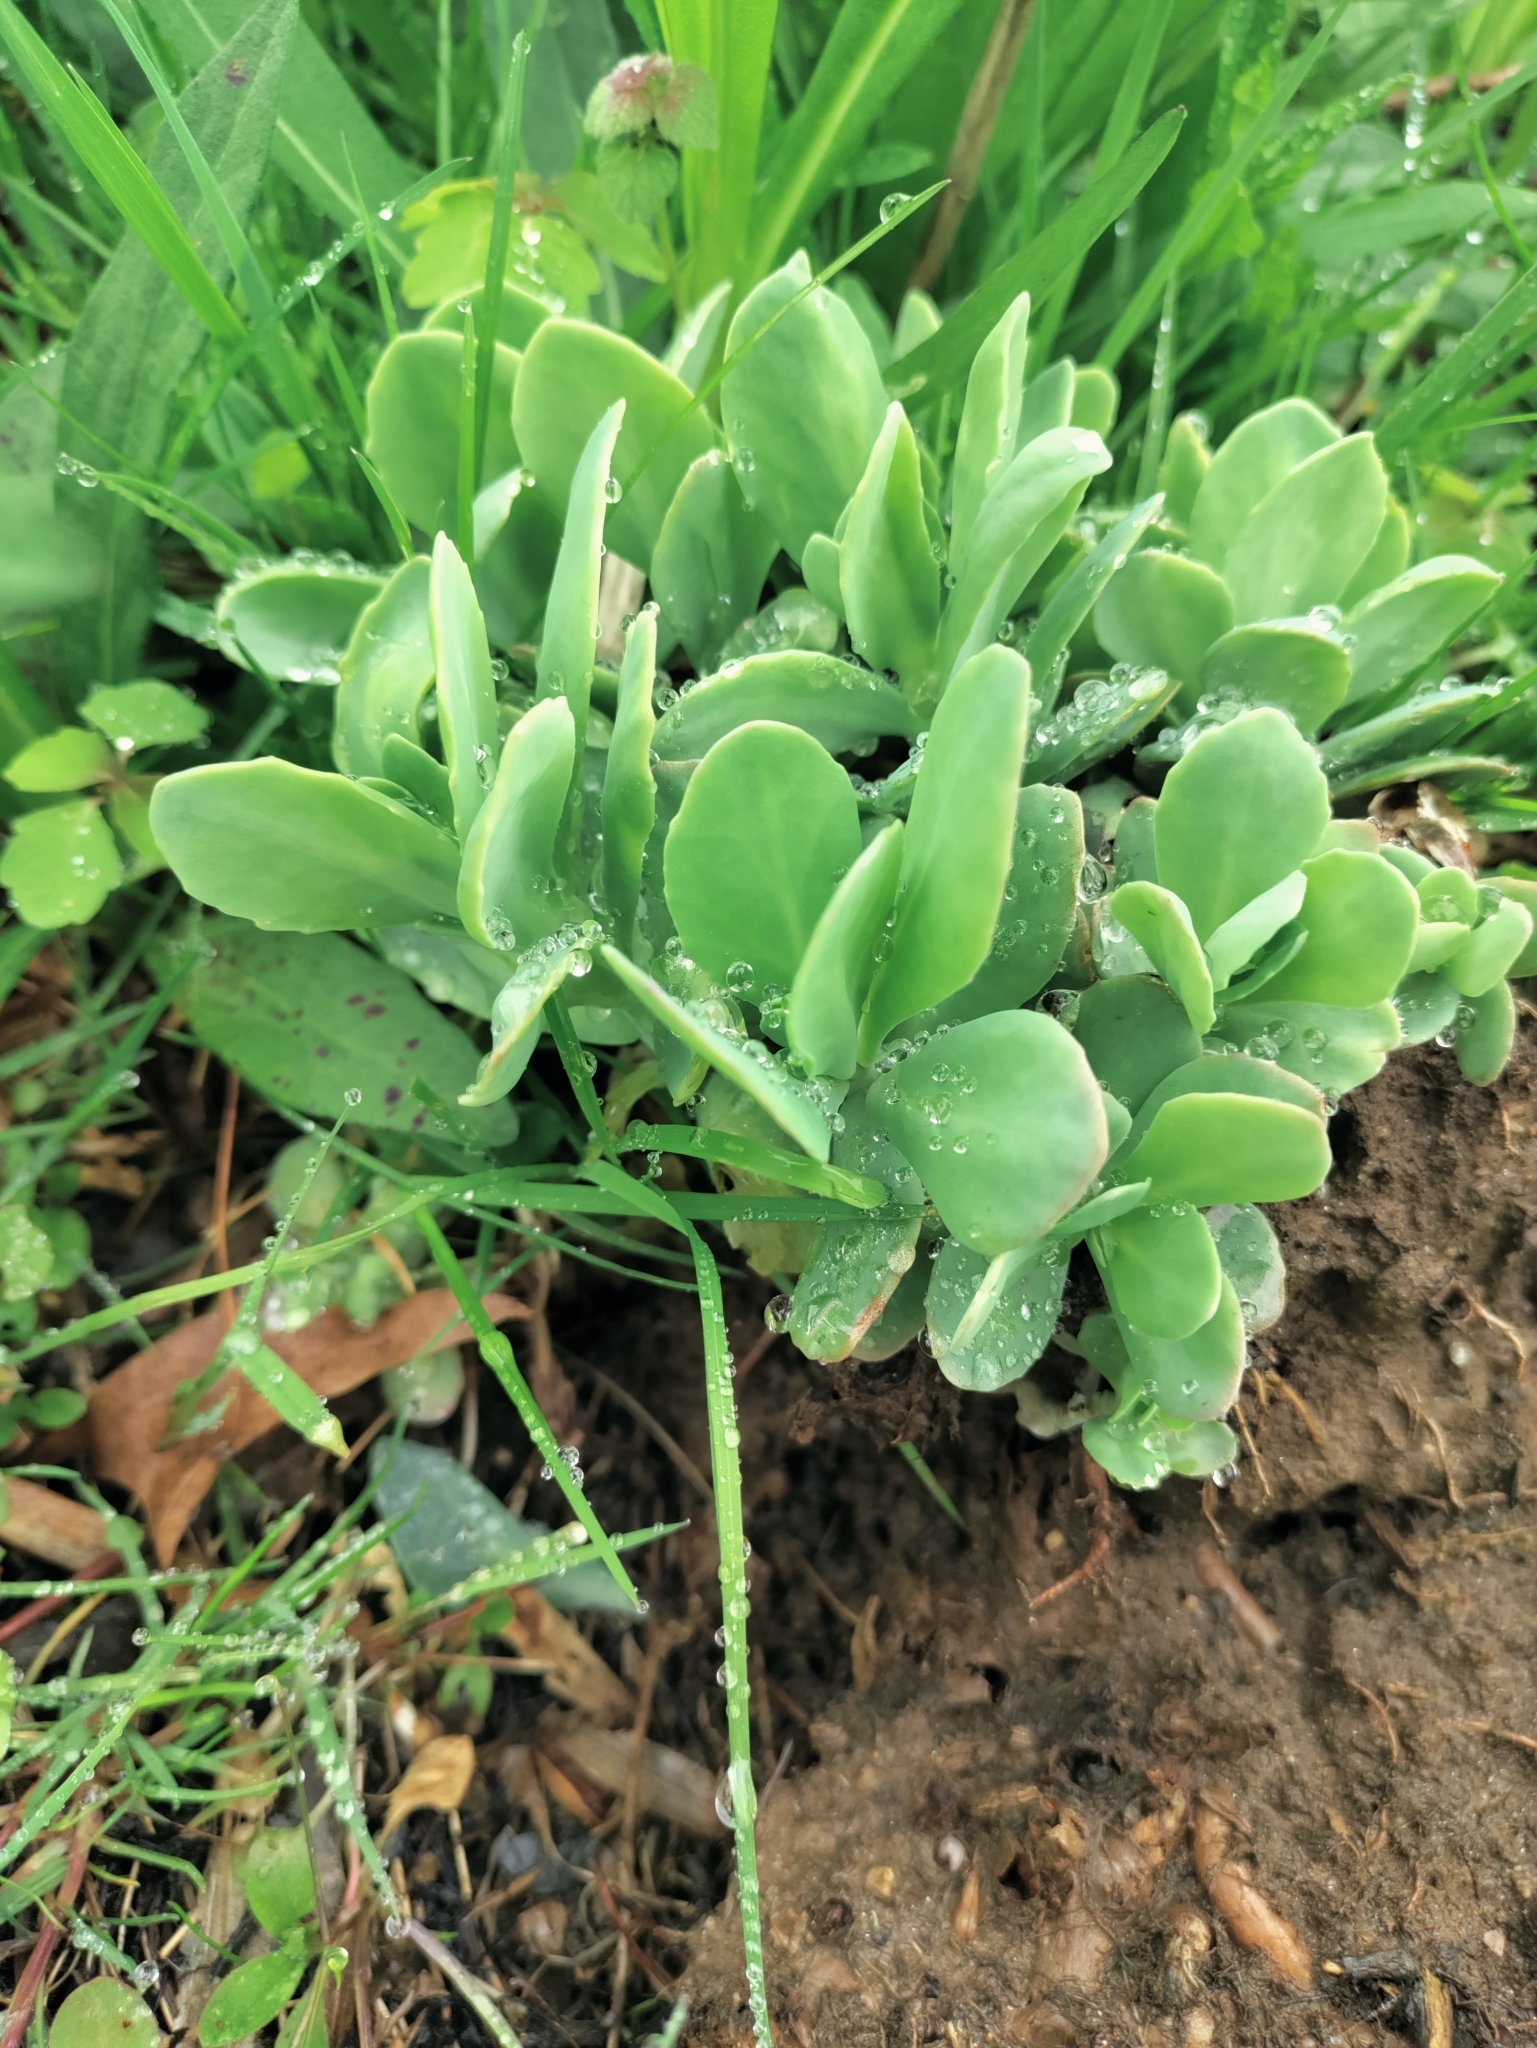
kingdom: Plantae
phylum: Tracheophyta
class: Magnoliopsida
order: Saxifragales
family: Crassulaceae
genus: Hylotelephium
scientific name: Hylotelephium spectabile
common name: Showy stonecrop
